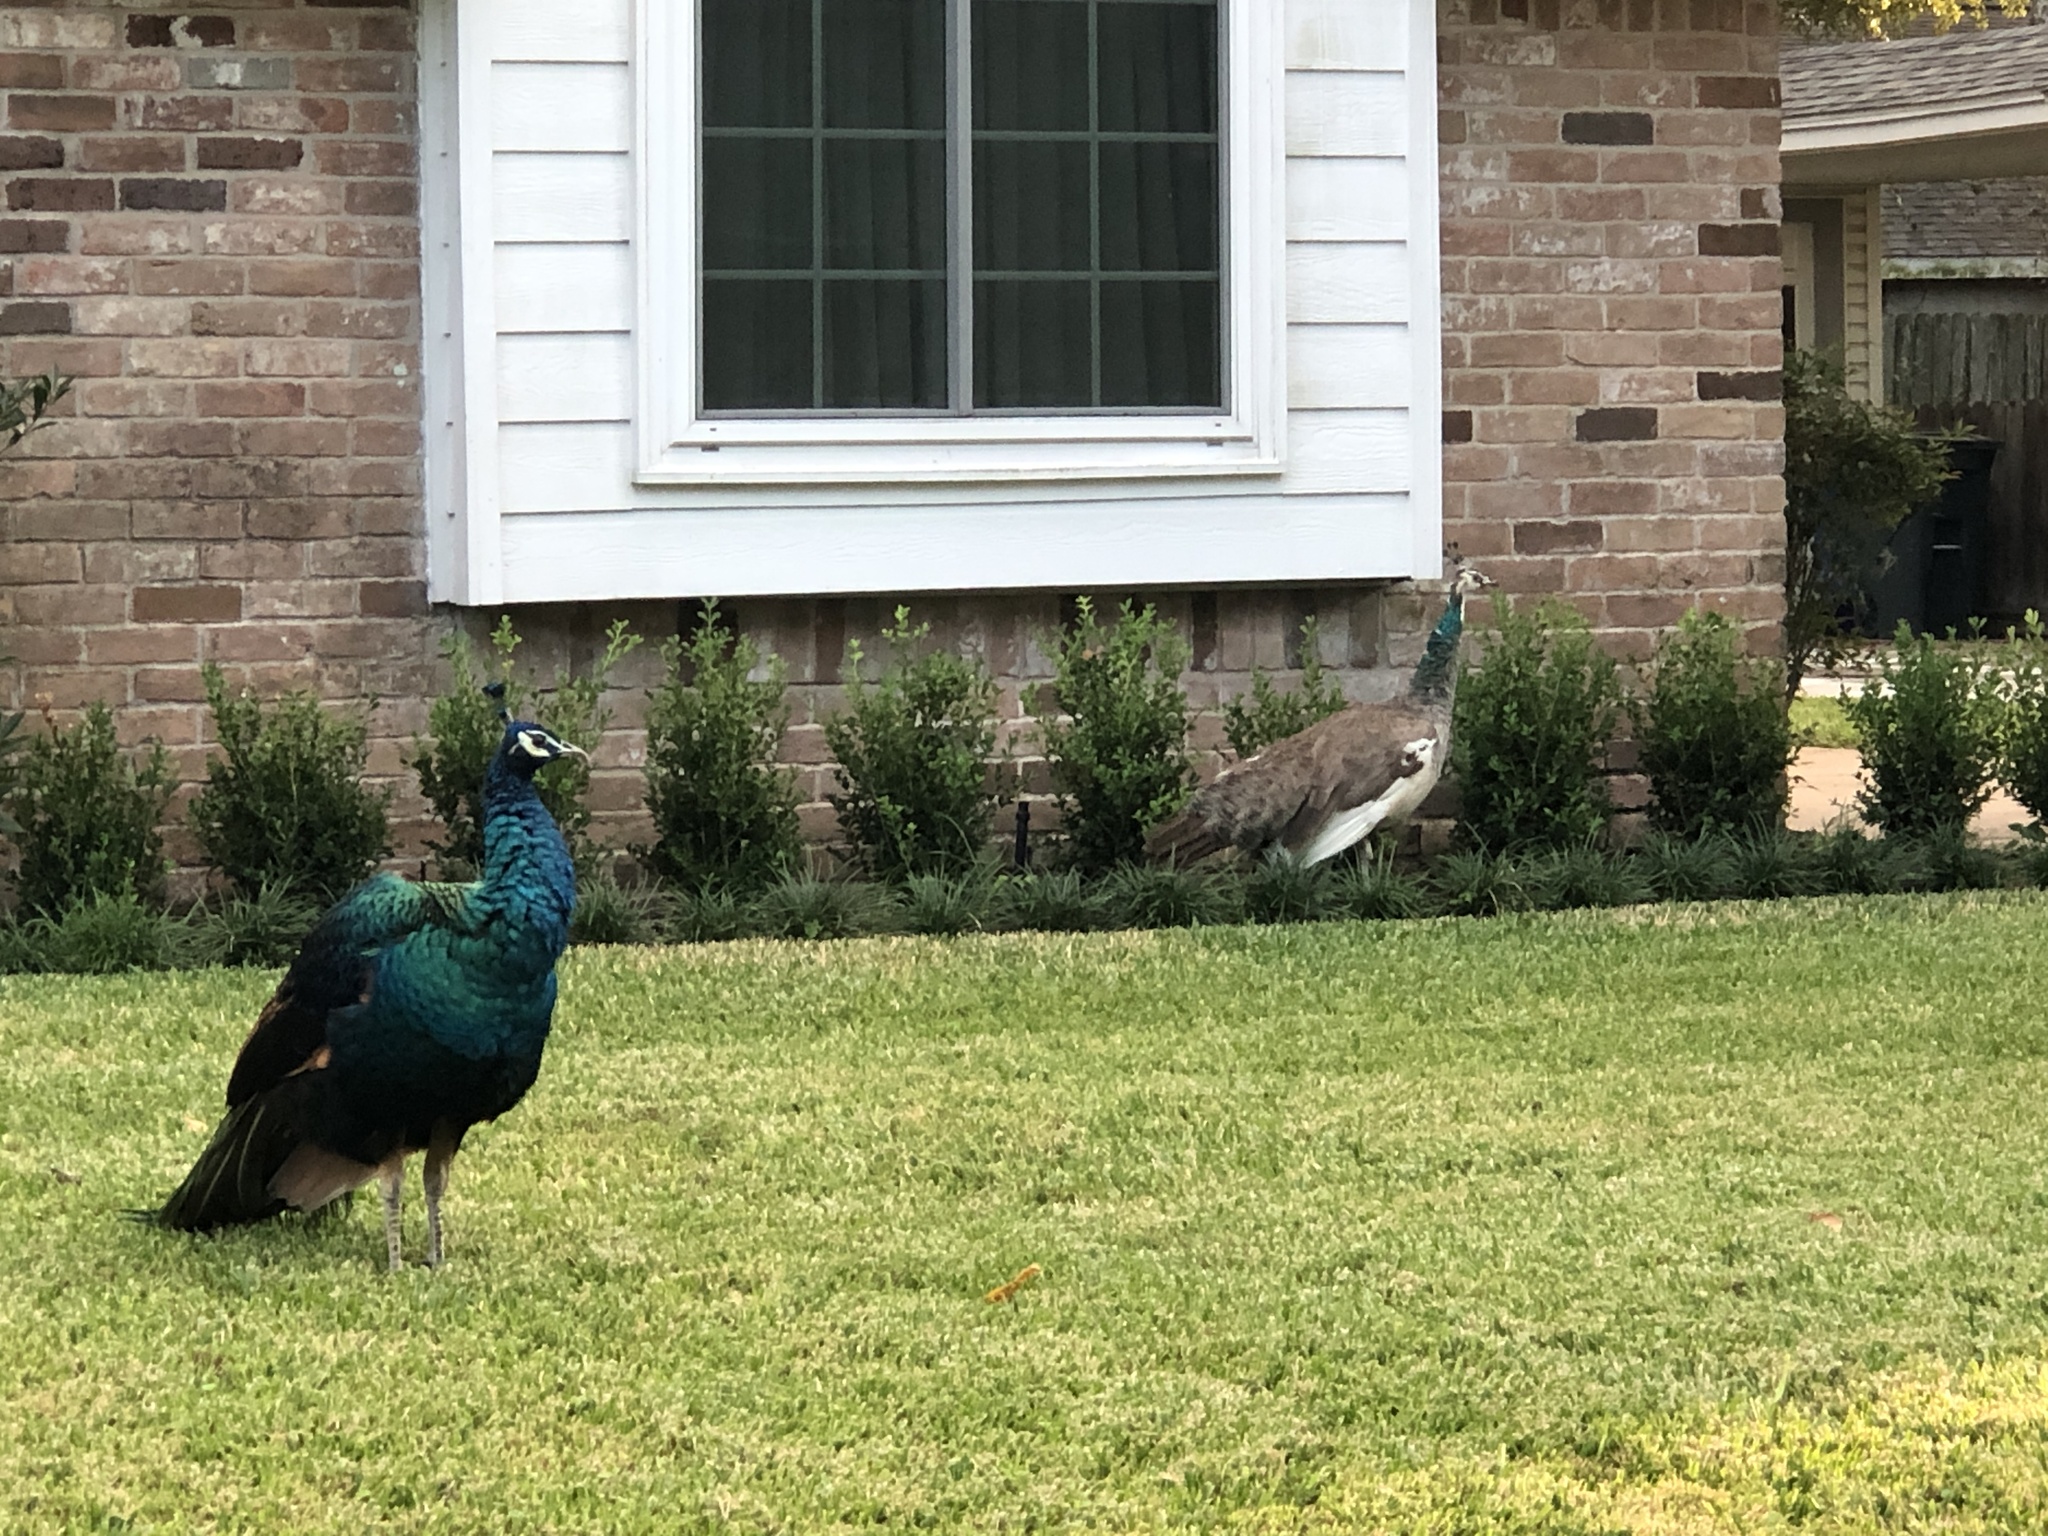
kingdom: Animalia
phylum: Chordata
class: Aves
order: Galliformes
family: Phasianidae
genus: Pavo
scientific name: Pavo
